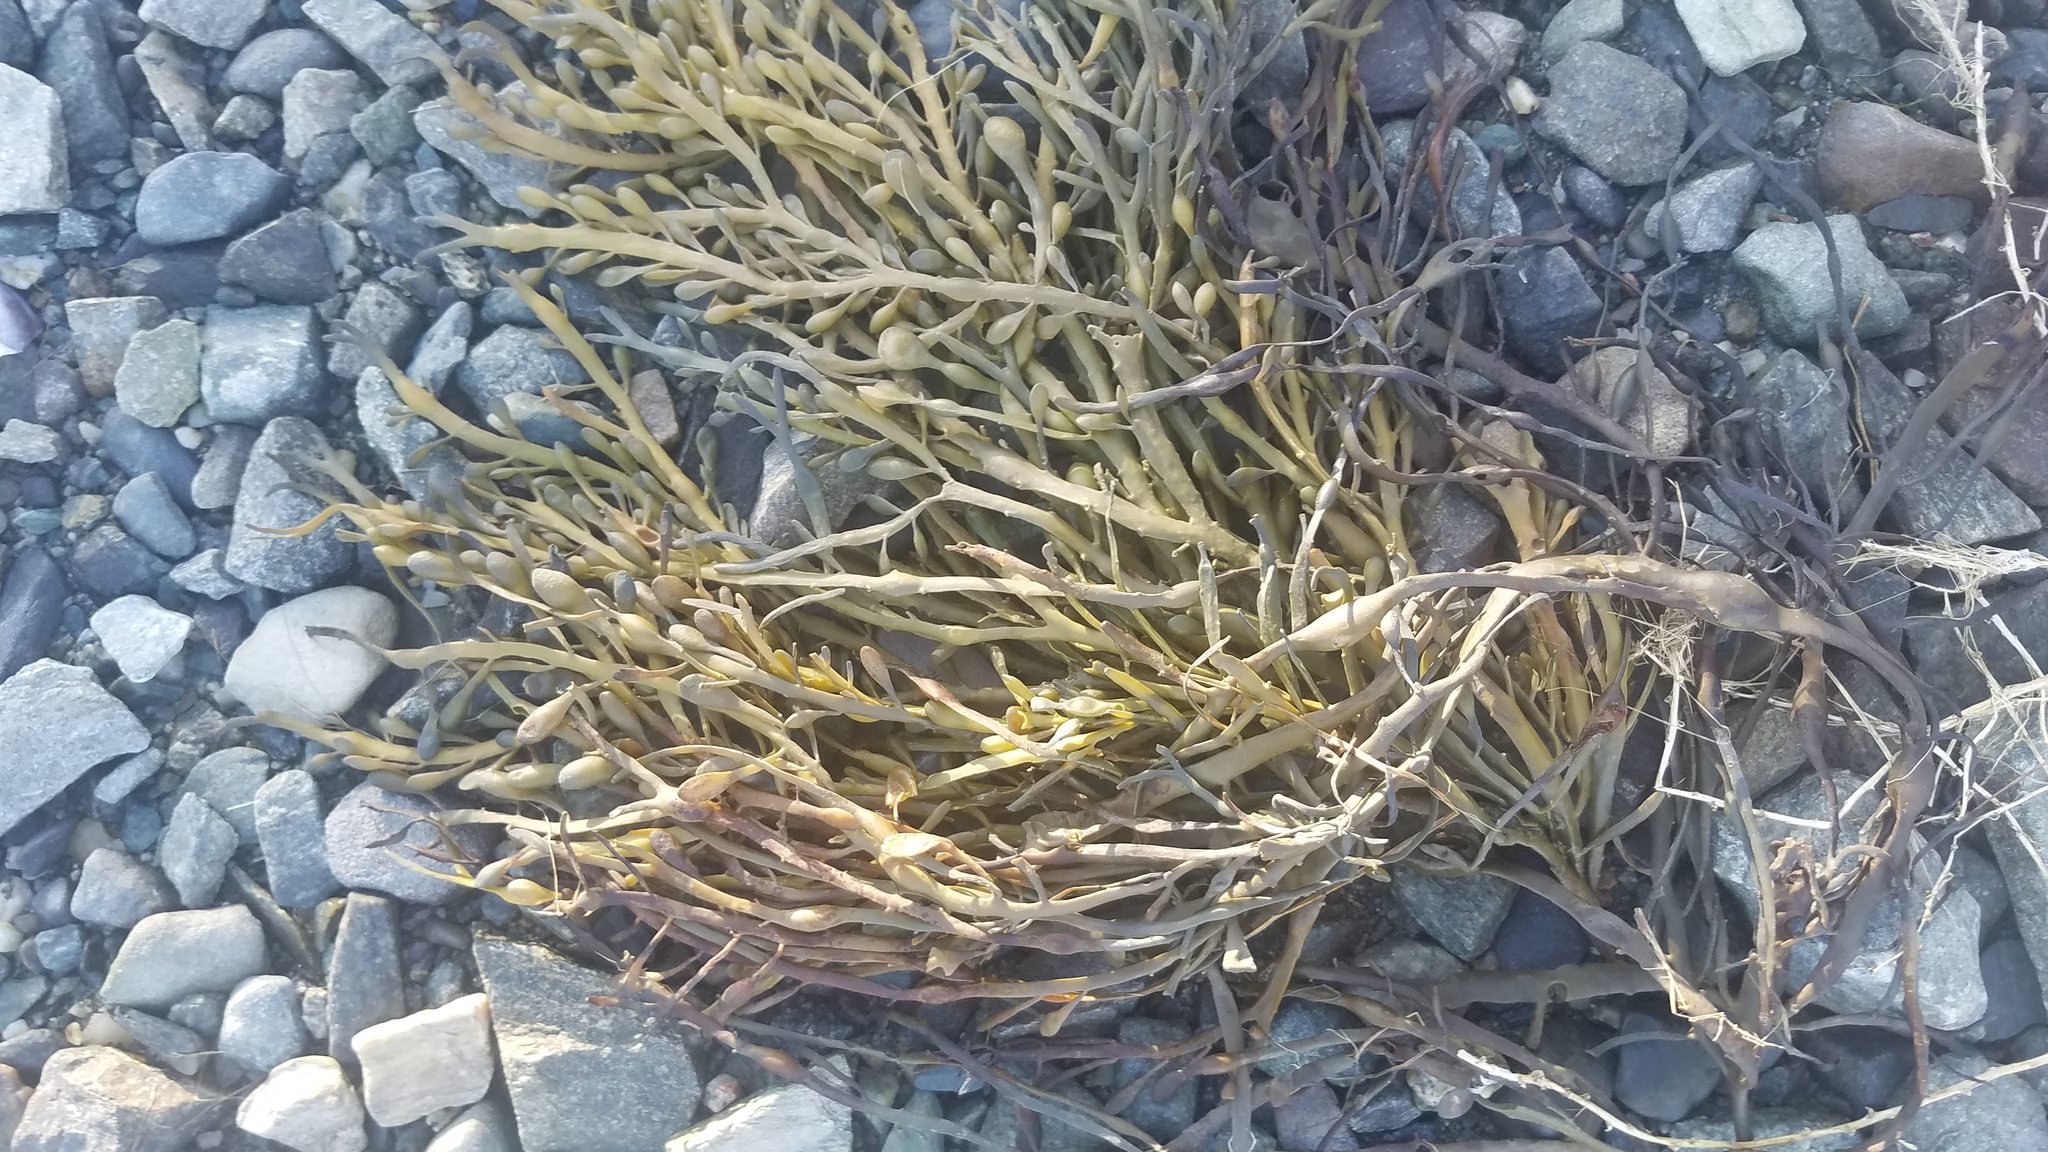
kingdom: Chromista
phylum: Ochrophyta
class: Phaeophyceae
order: Fucales
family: Fucaceae
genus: Ascophyllum
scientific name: Ascophyllum nodosum
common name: Knotted wrack
